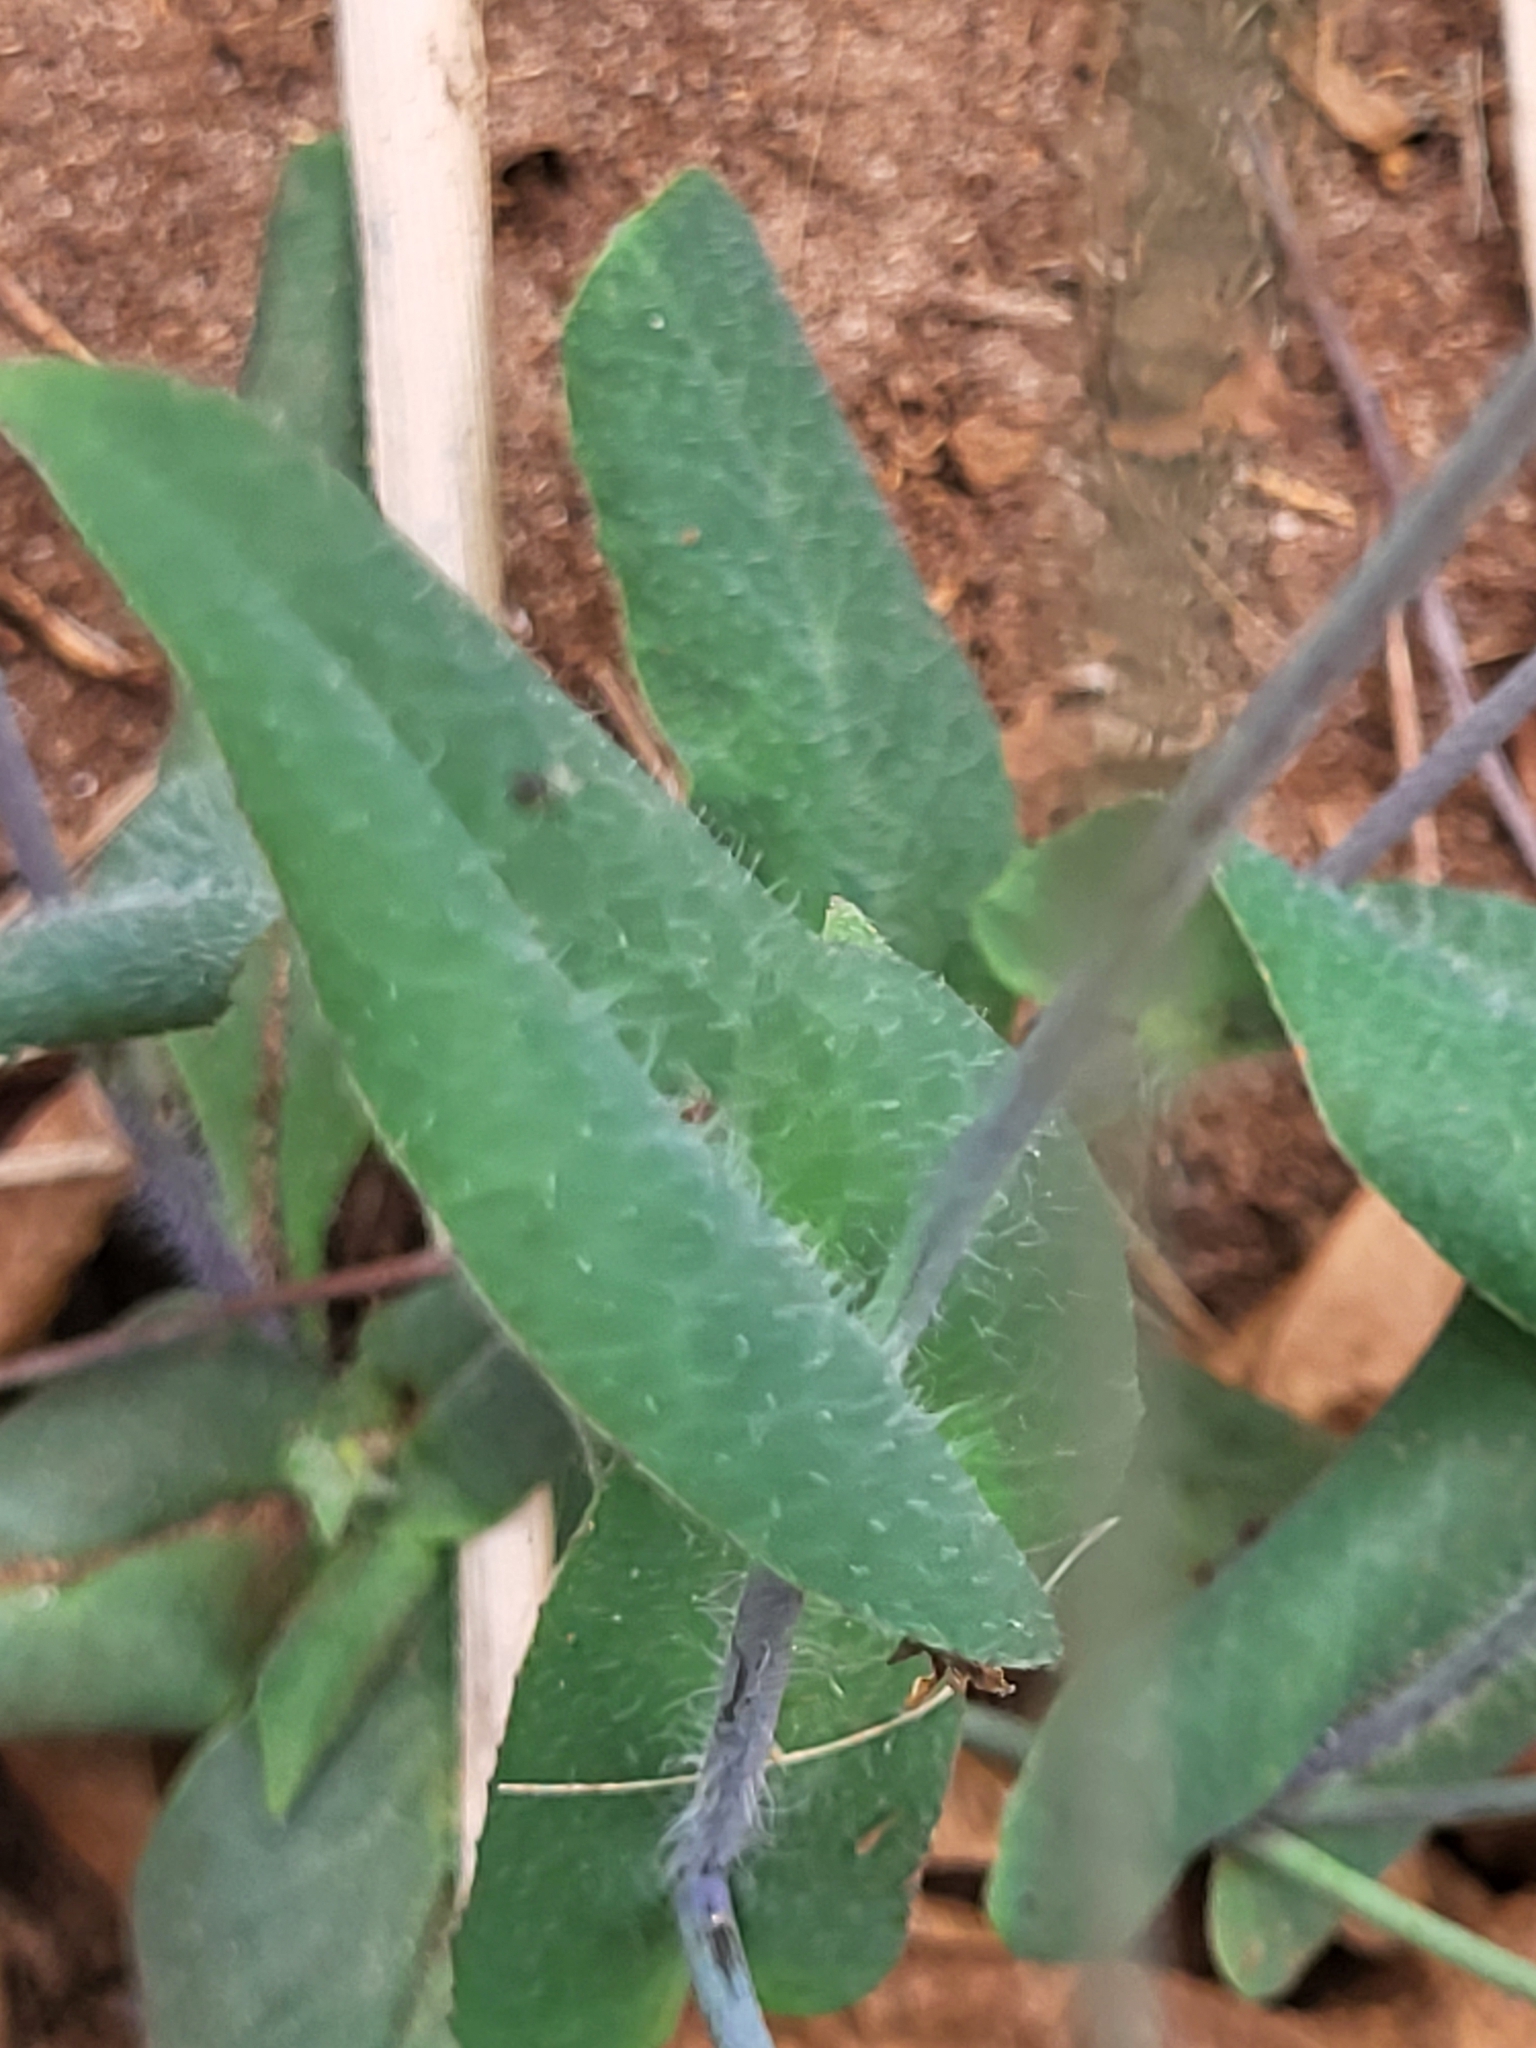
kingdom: Plantae
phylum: Tracheophyta
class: Magnoliopsida
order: Asterales
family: Asteraceae
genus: Emilia
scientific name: Emilia coccinea
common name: Scarlet tasselflower
